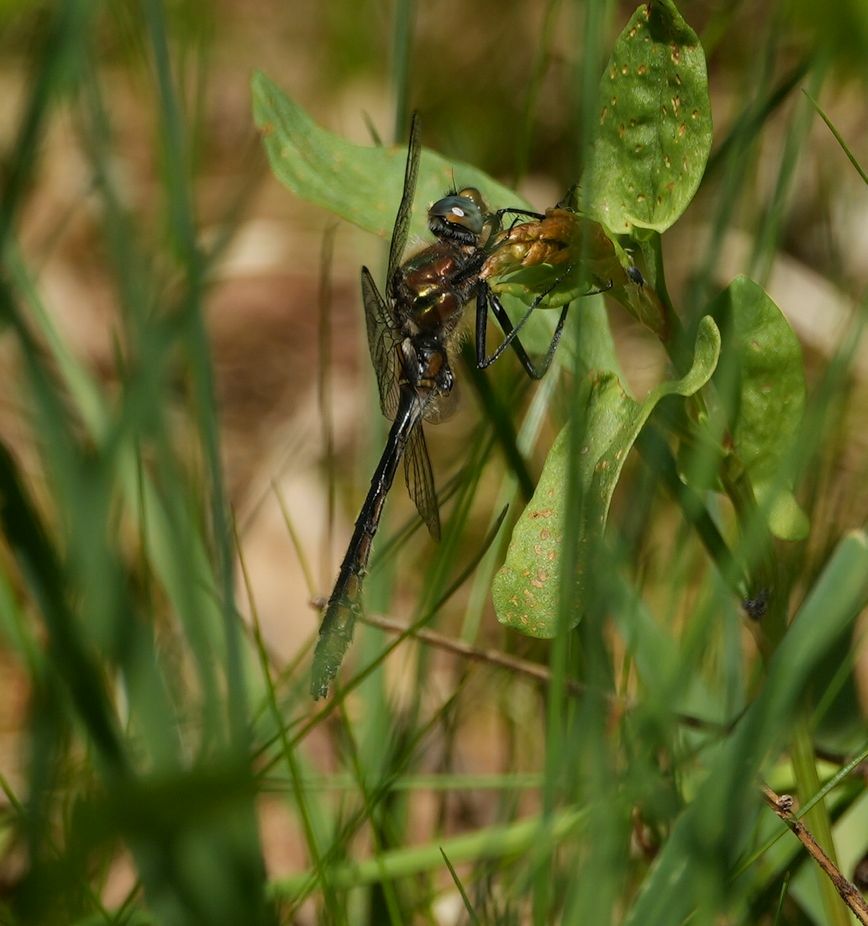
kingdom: Animalia
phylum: Arthropoda
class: Insecta
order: Odonata
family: Corduliidae
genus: Cordulia
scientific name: Cordulia shurtleffii
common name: American emerald
